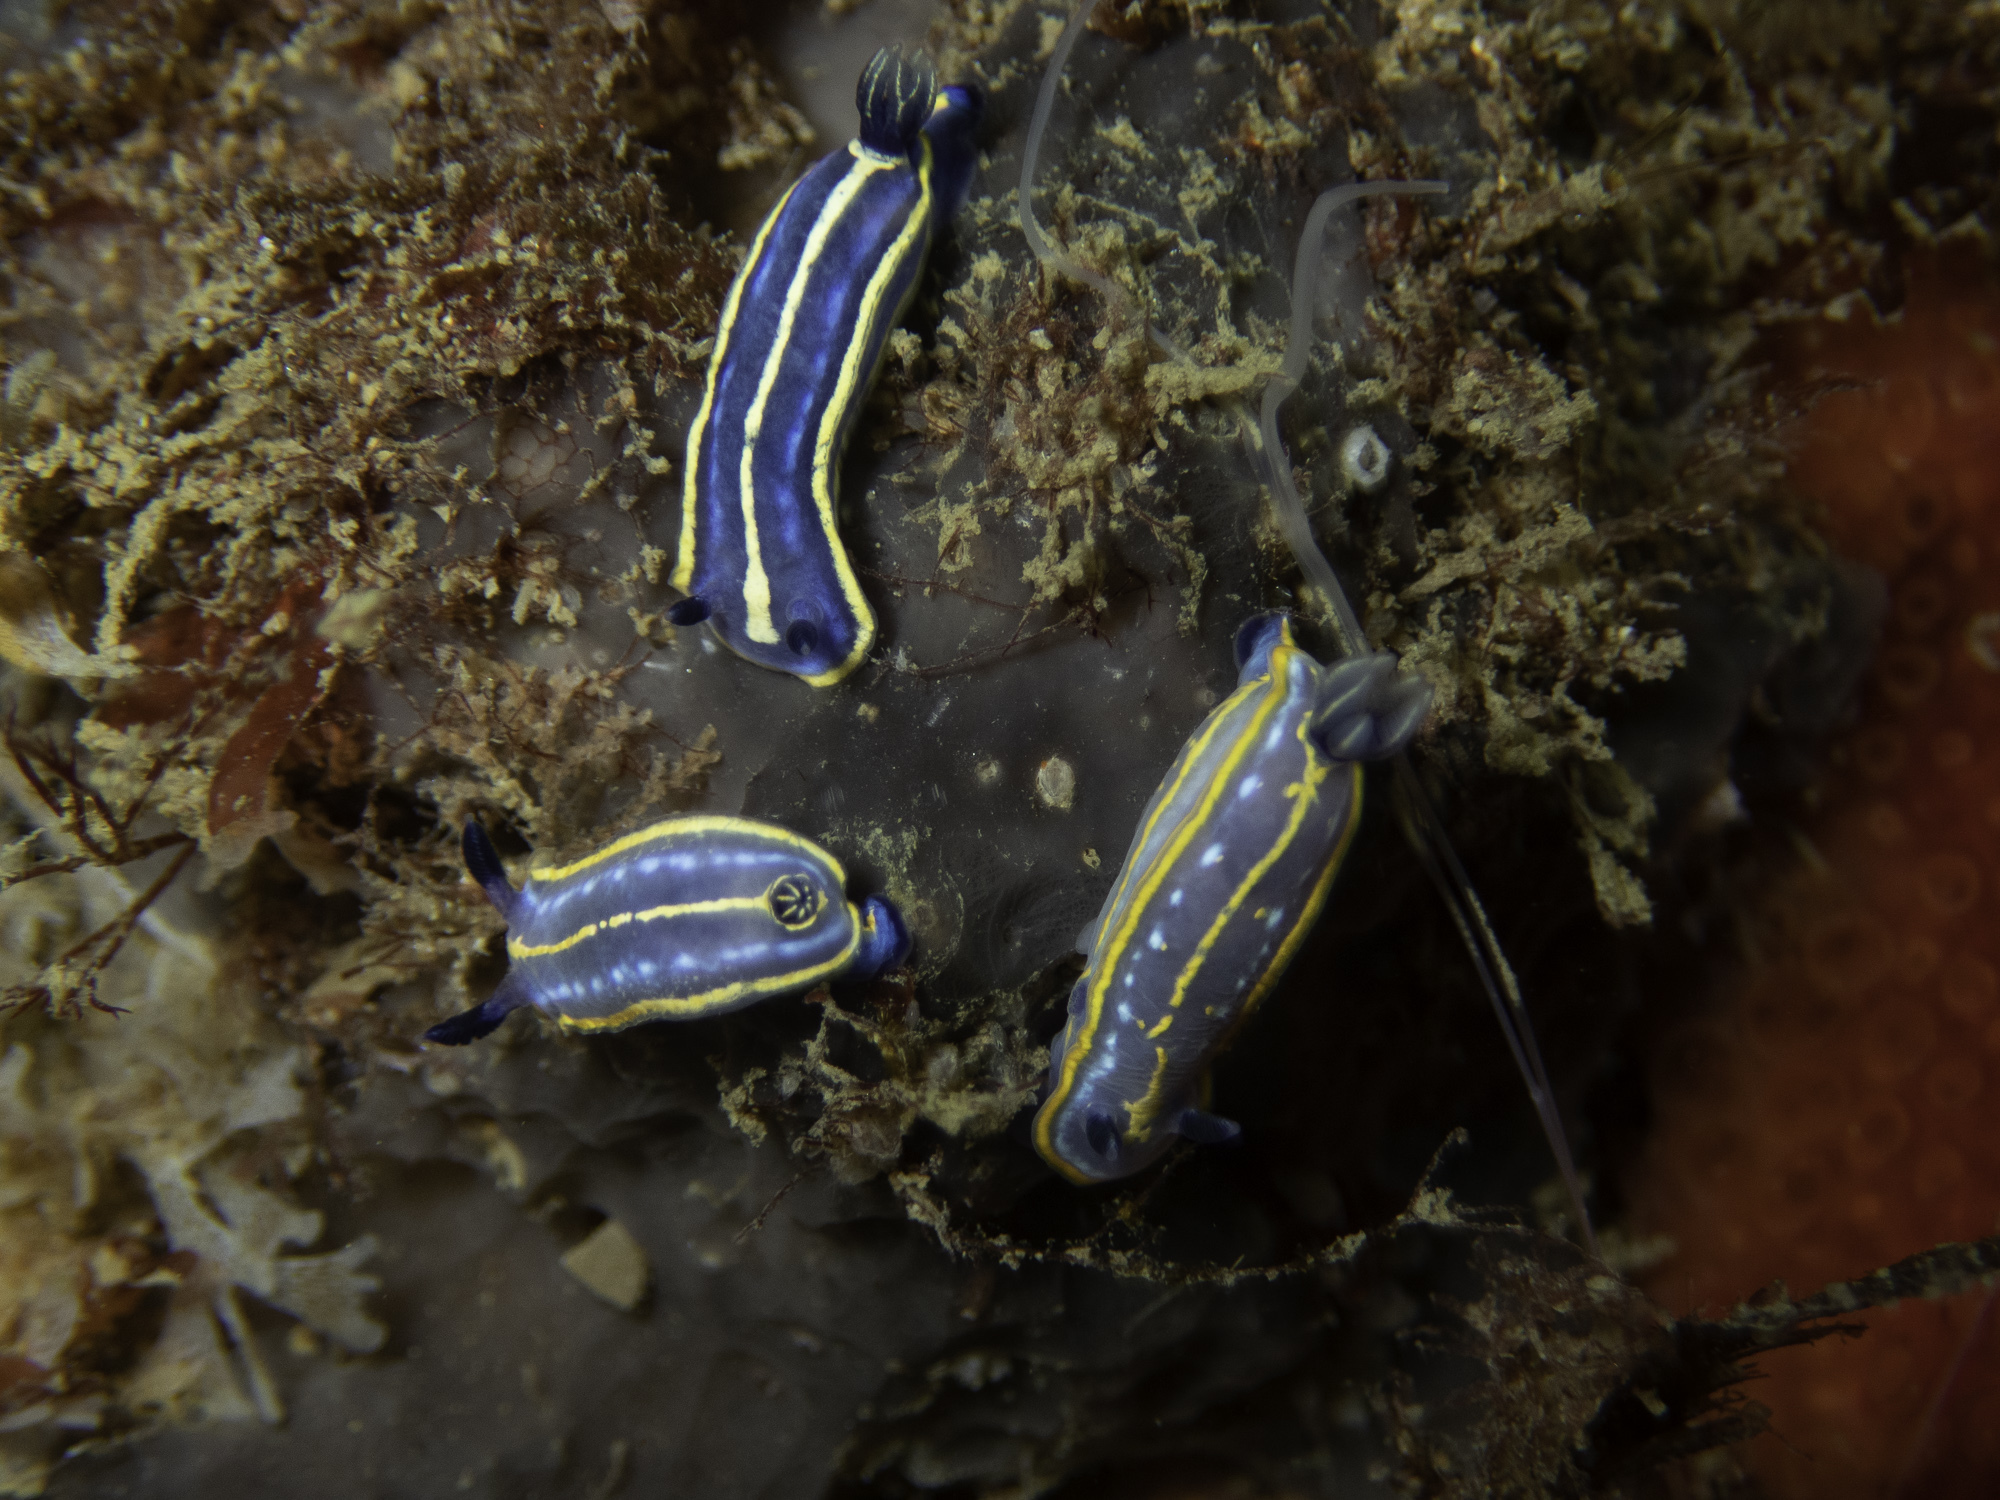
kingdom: Animalia
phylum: Mollusca
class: Gastropoda
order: Nudibranchia
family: Chromodorididae
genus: Felimare
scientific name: Felimare tricolor
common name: Tricolor doris
